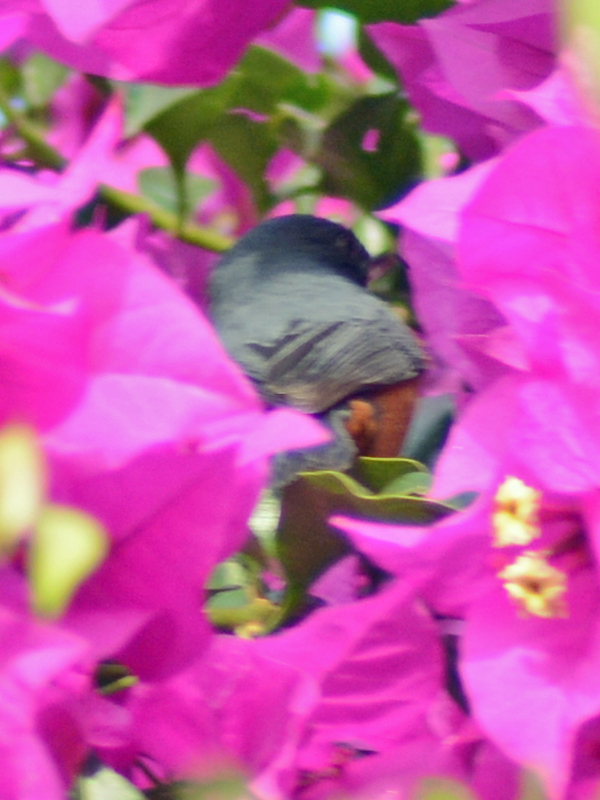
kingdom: Animalia
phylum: Chordata
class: Aves
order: Passeriformes
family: Thraupidae
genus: Diglossa
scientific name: Diglossa baritula
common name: Cinnamon-bellied flowerpiercer
